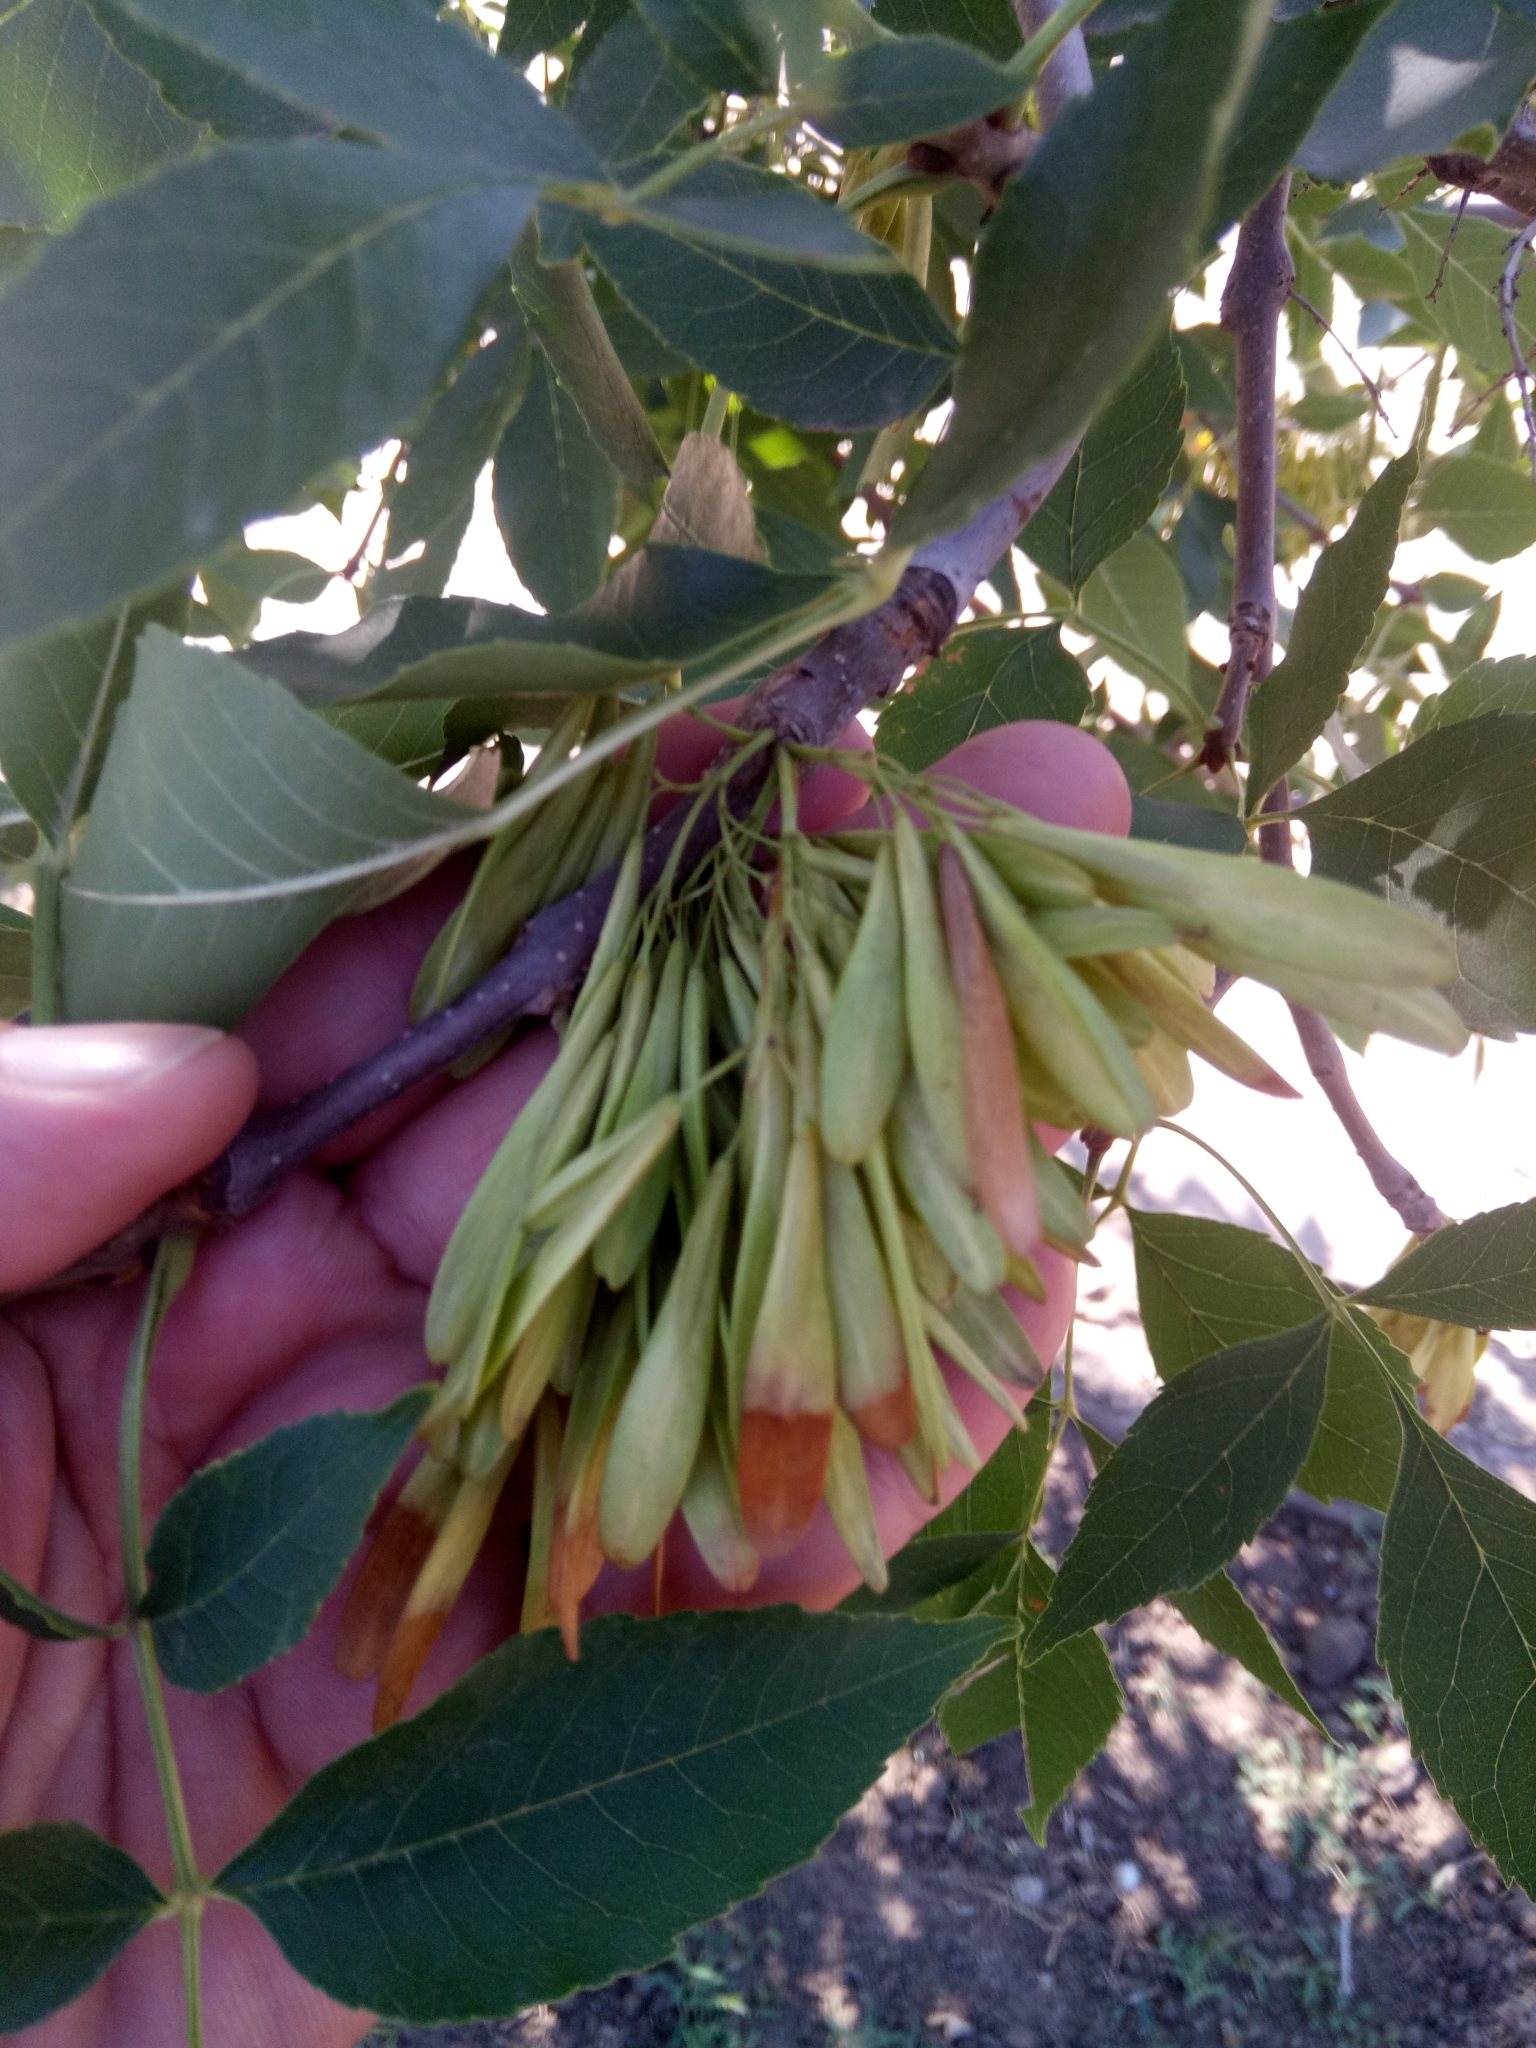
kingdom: Plantae
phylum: Tracheophyta
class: Magnoliopsida
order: Lamiales
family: Oleaceae
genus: Fraxinus
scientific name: Fraxinus excelsior
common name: European ash
